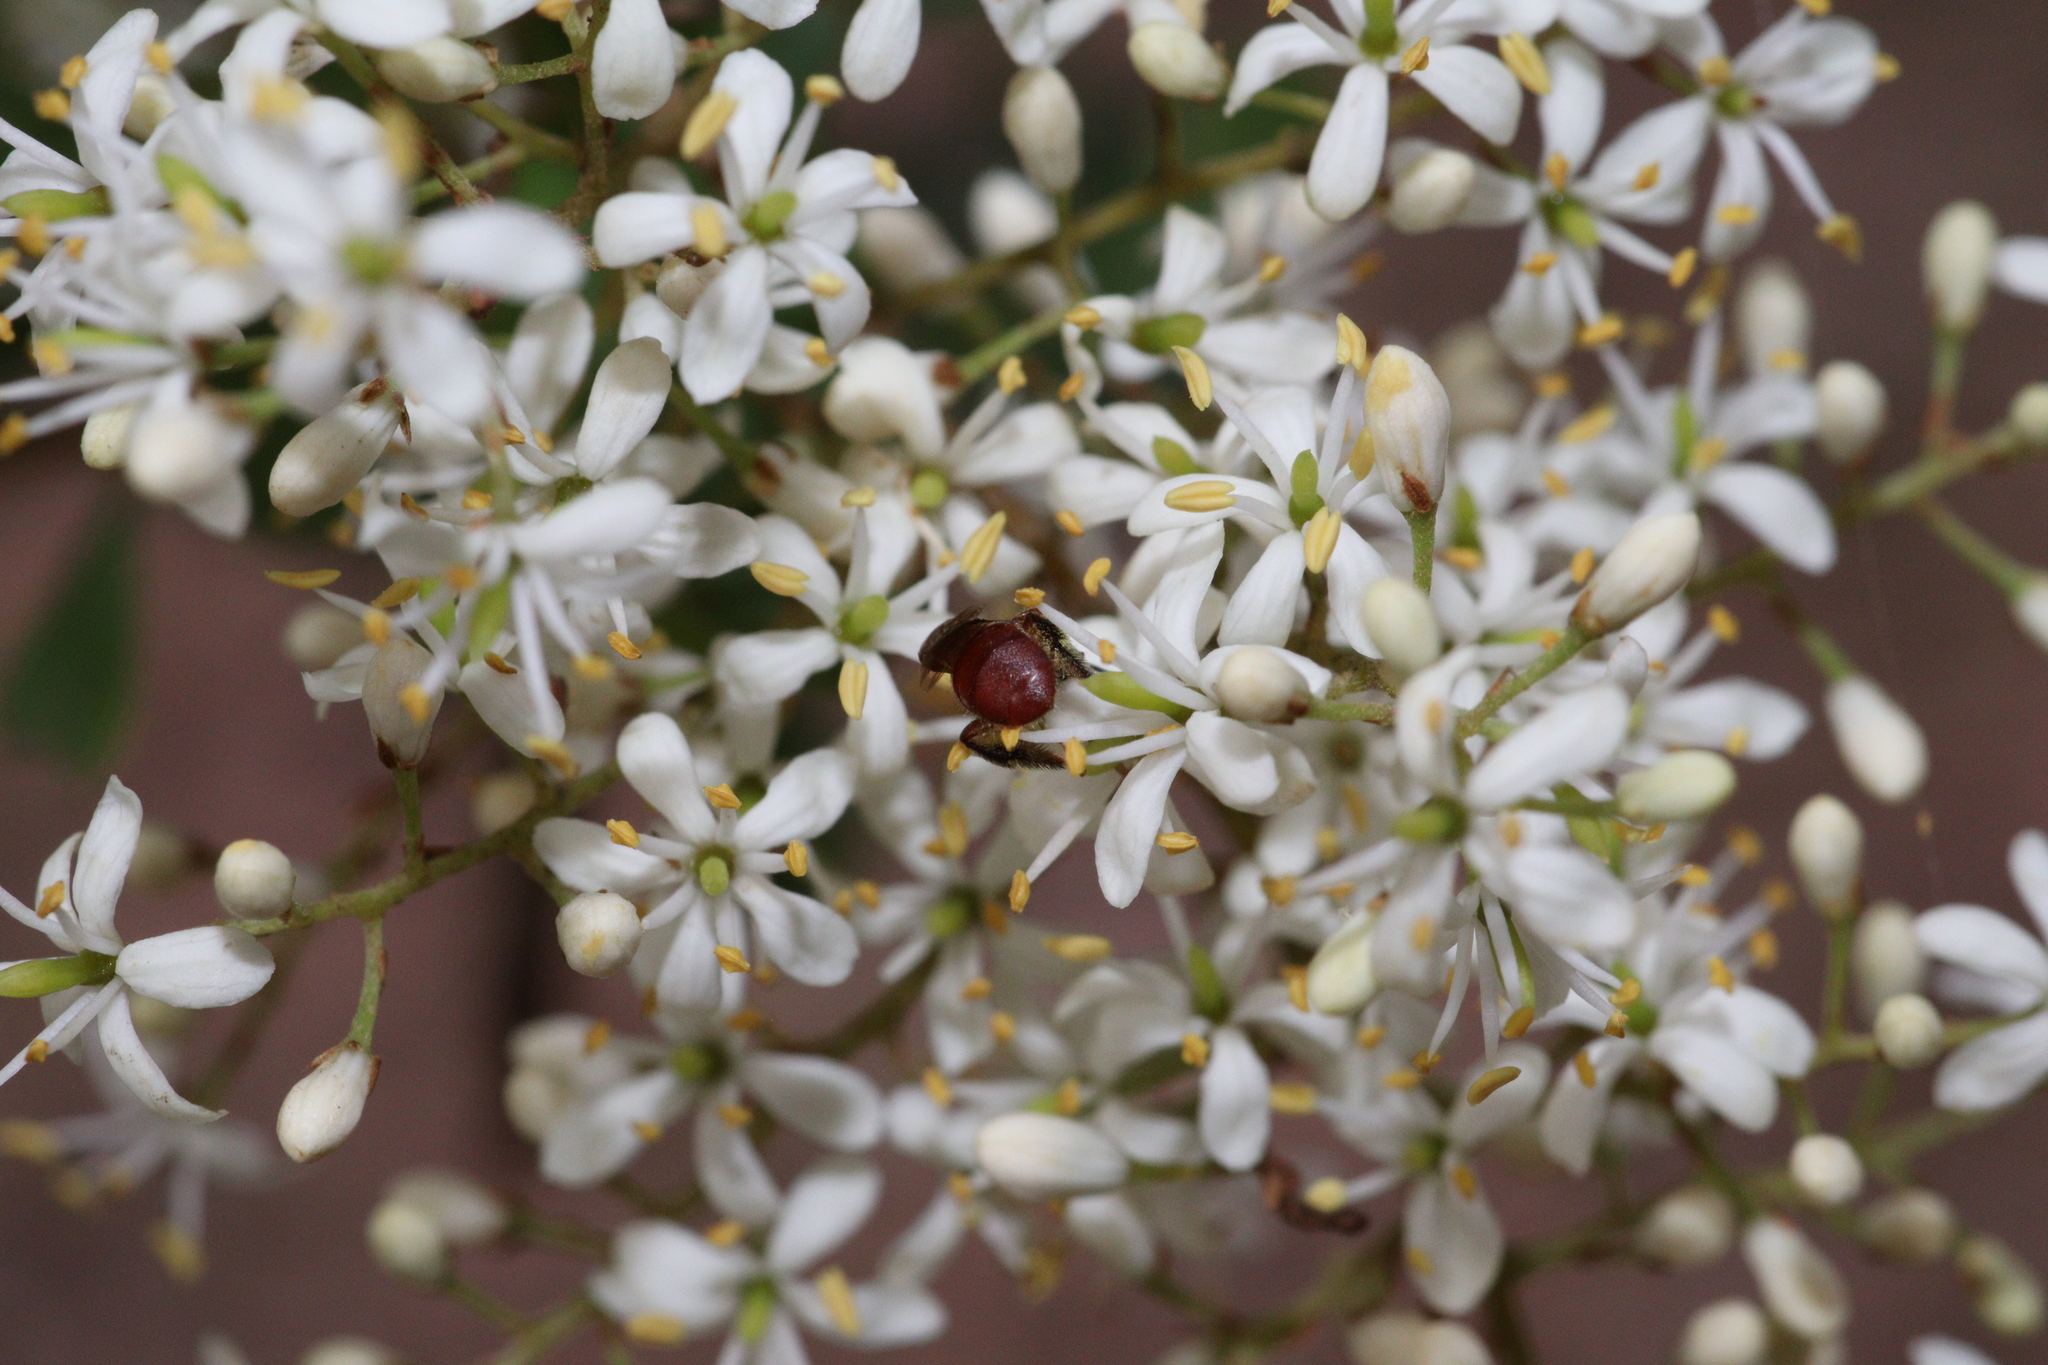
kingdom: Plantae
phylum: Tracheophyta
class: Magnoliopsida
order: Apiales
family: Pittosporaceae
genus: Bursaria
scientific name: Bursaria spinosa
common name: Australian blackthorn
